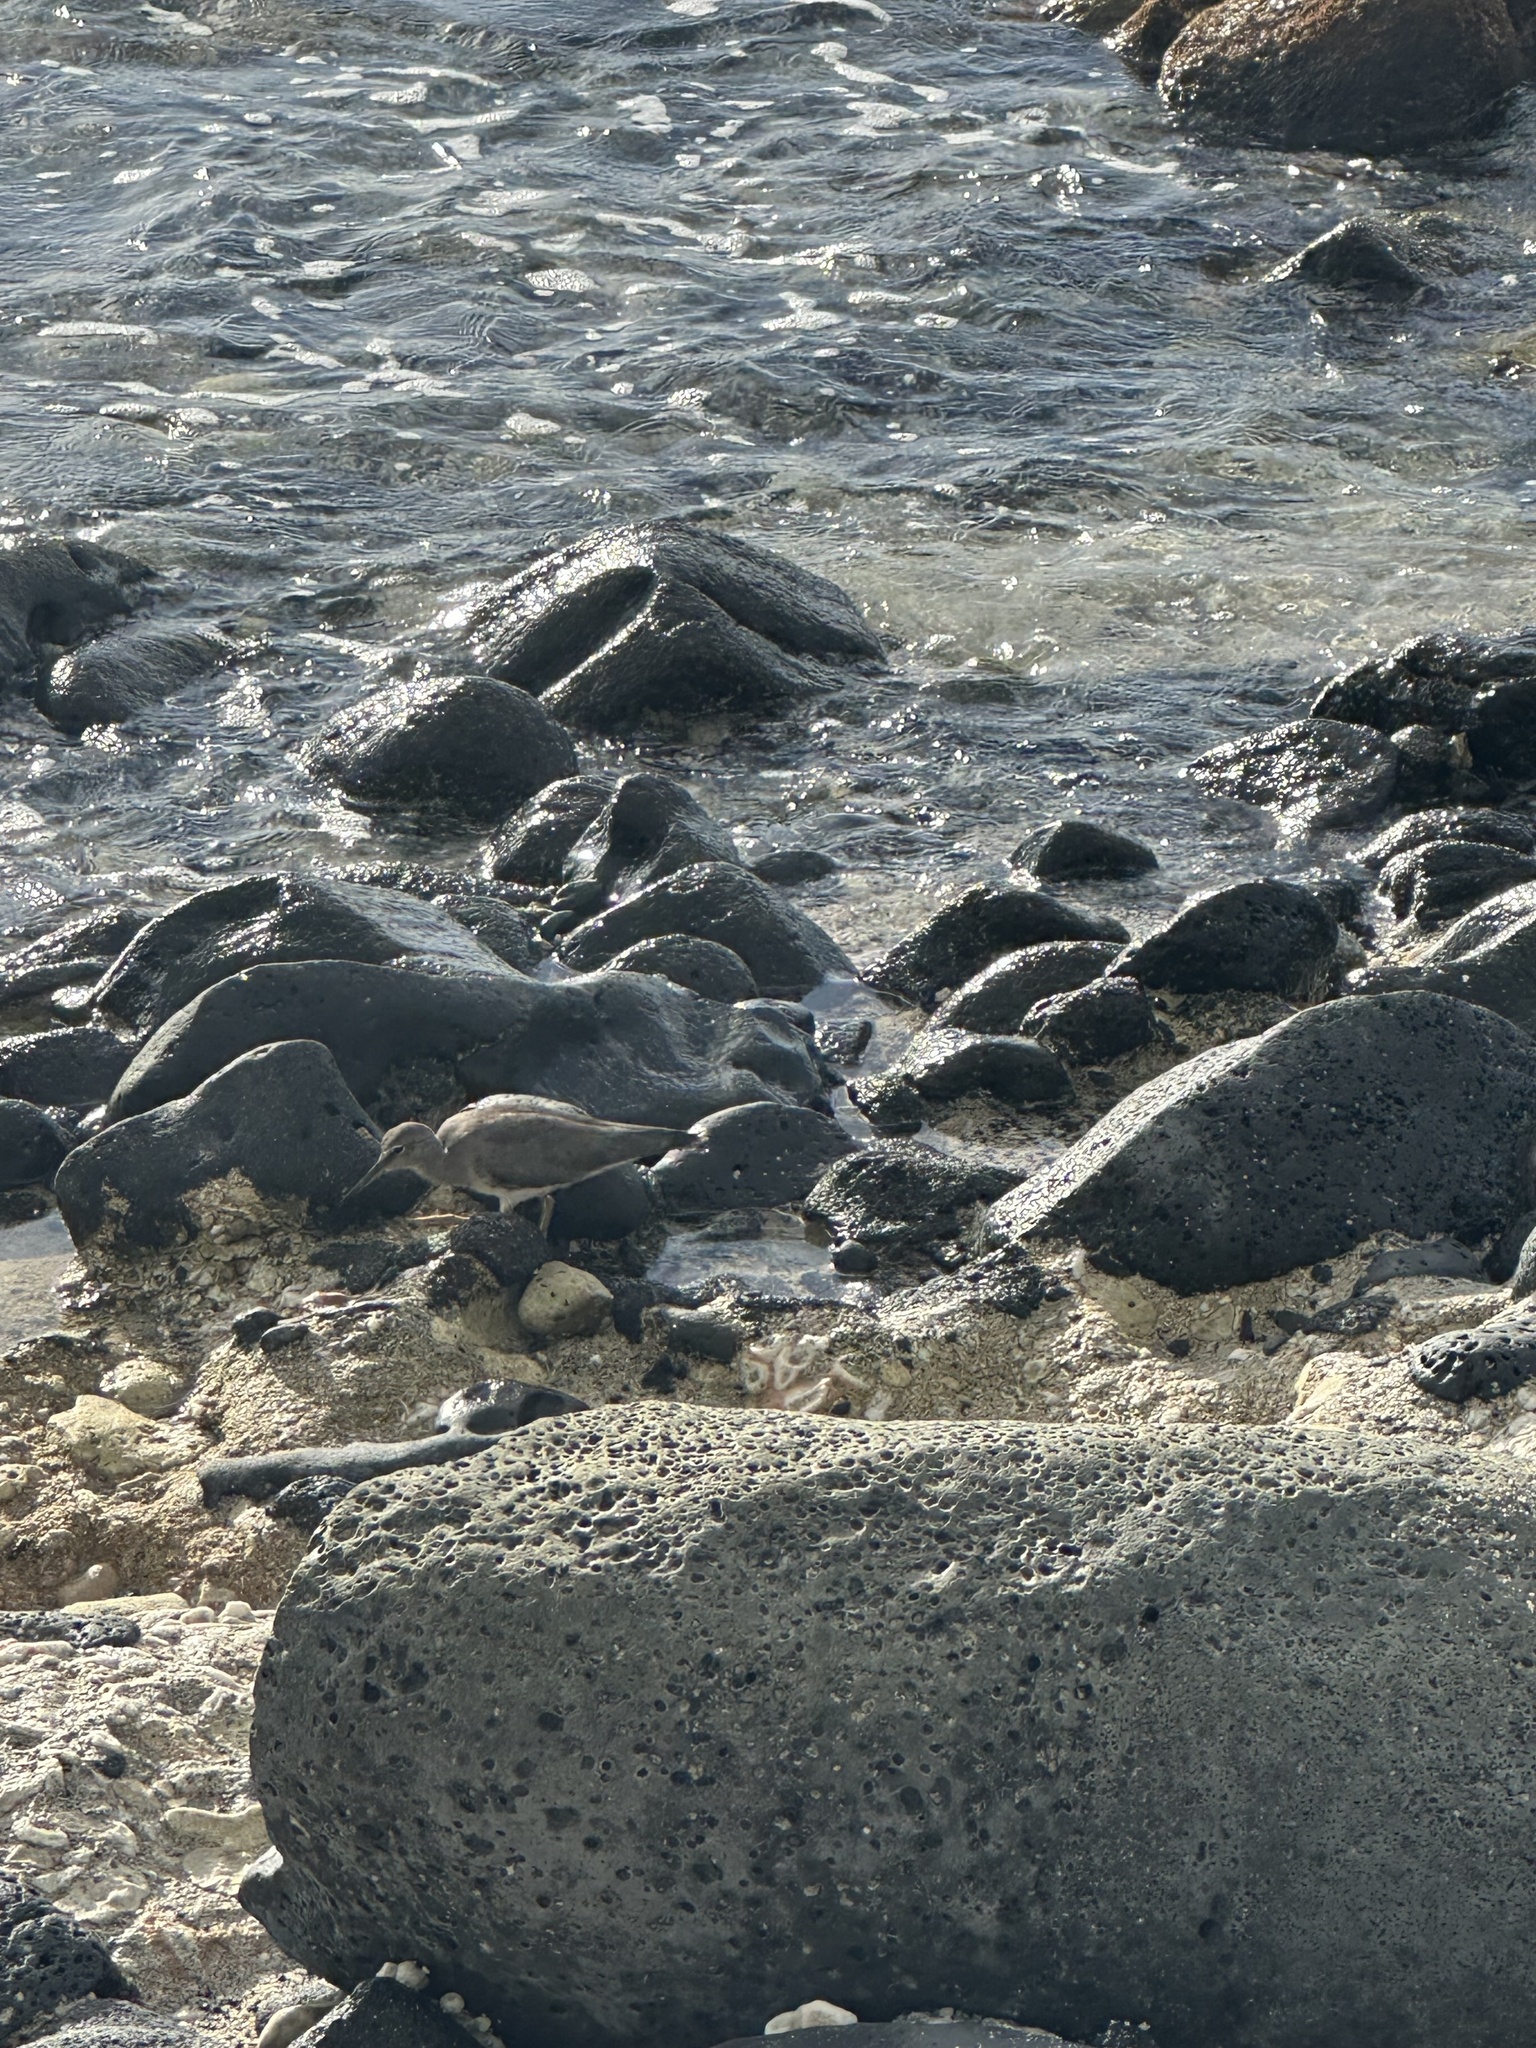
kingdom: Animalia
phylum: Chordata
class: Aves
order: Charadriiformes
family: Scolopacidae
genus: Tringa
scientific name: Tringa incana
